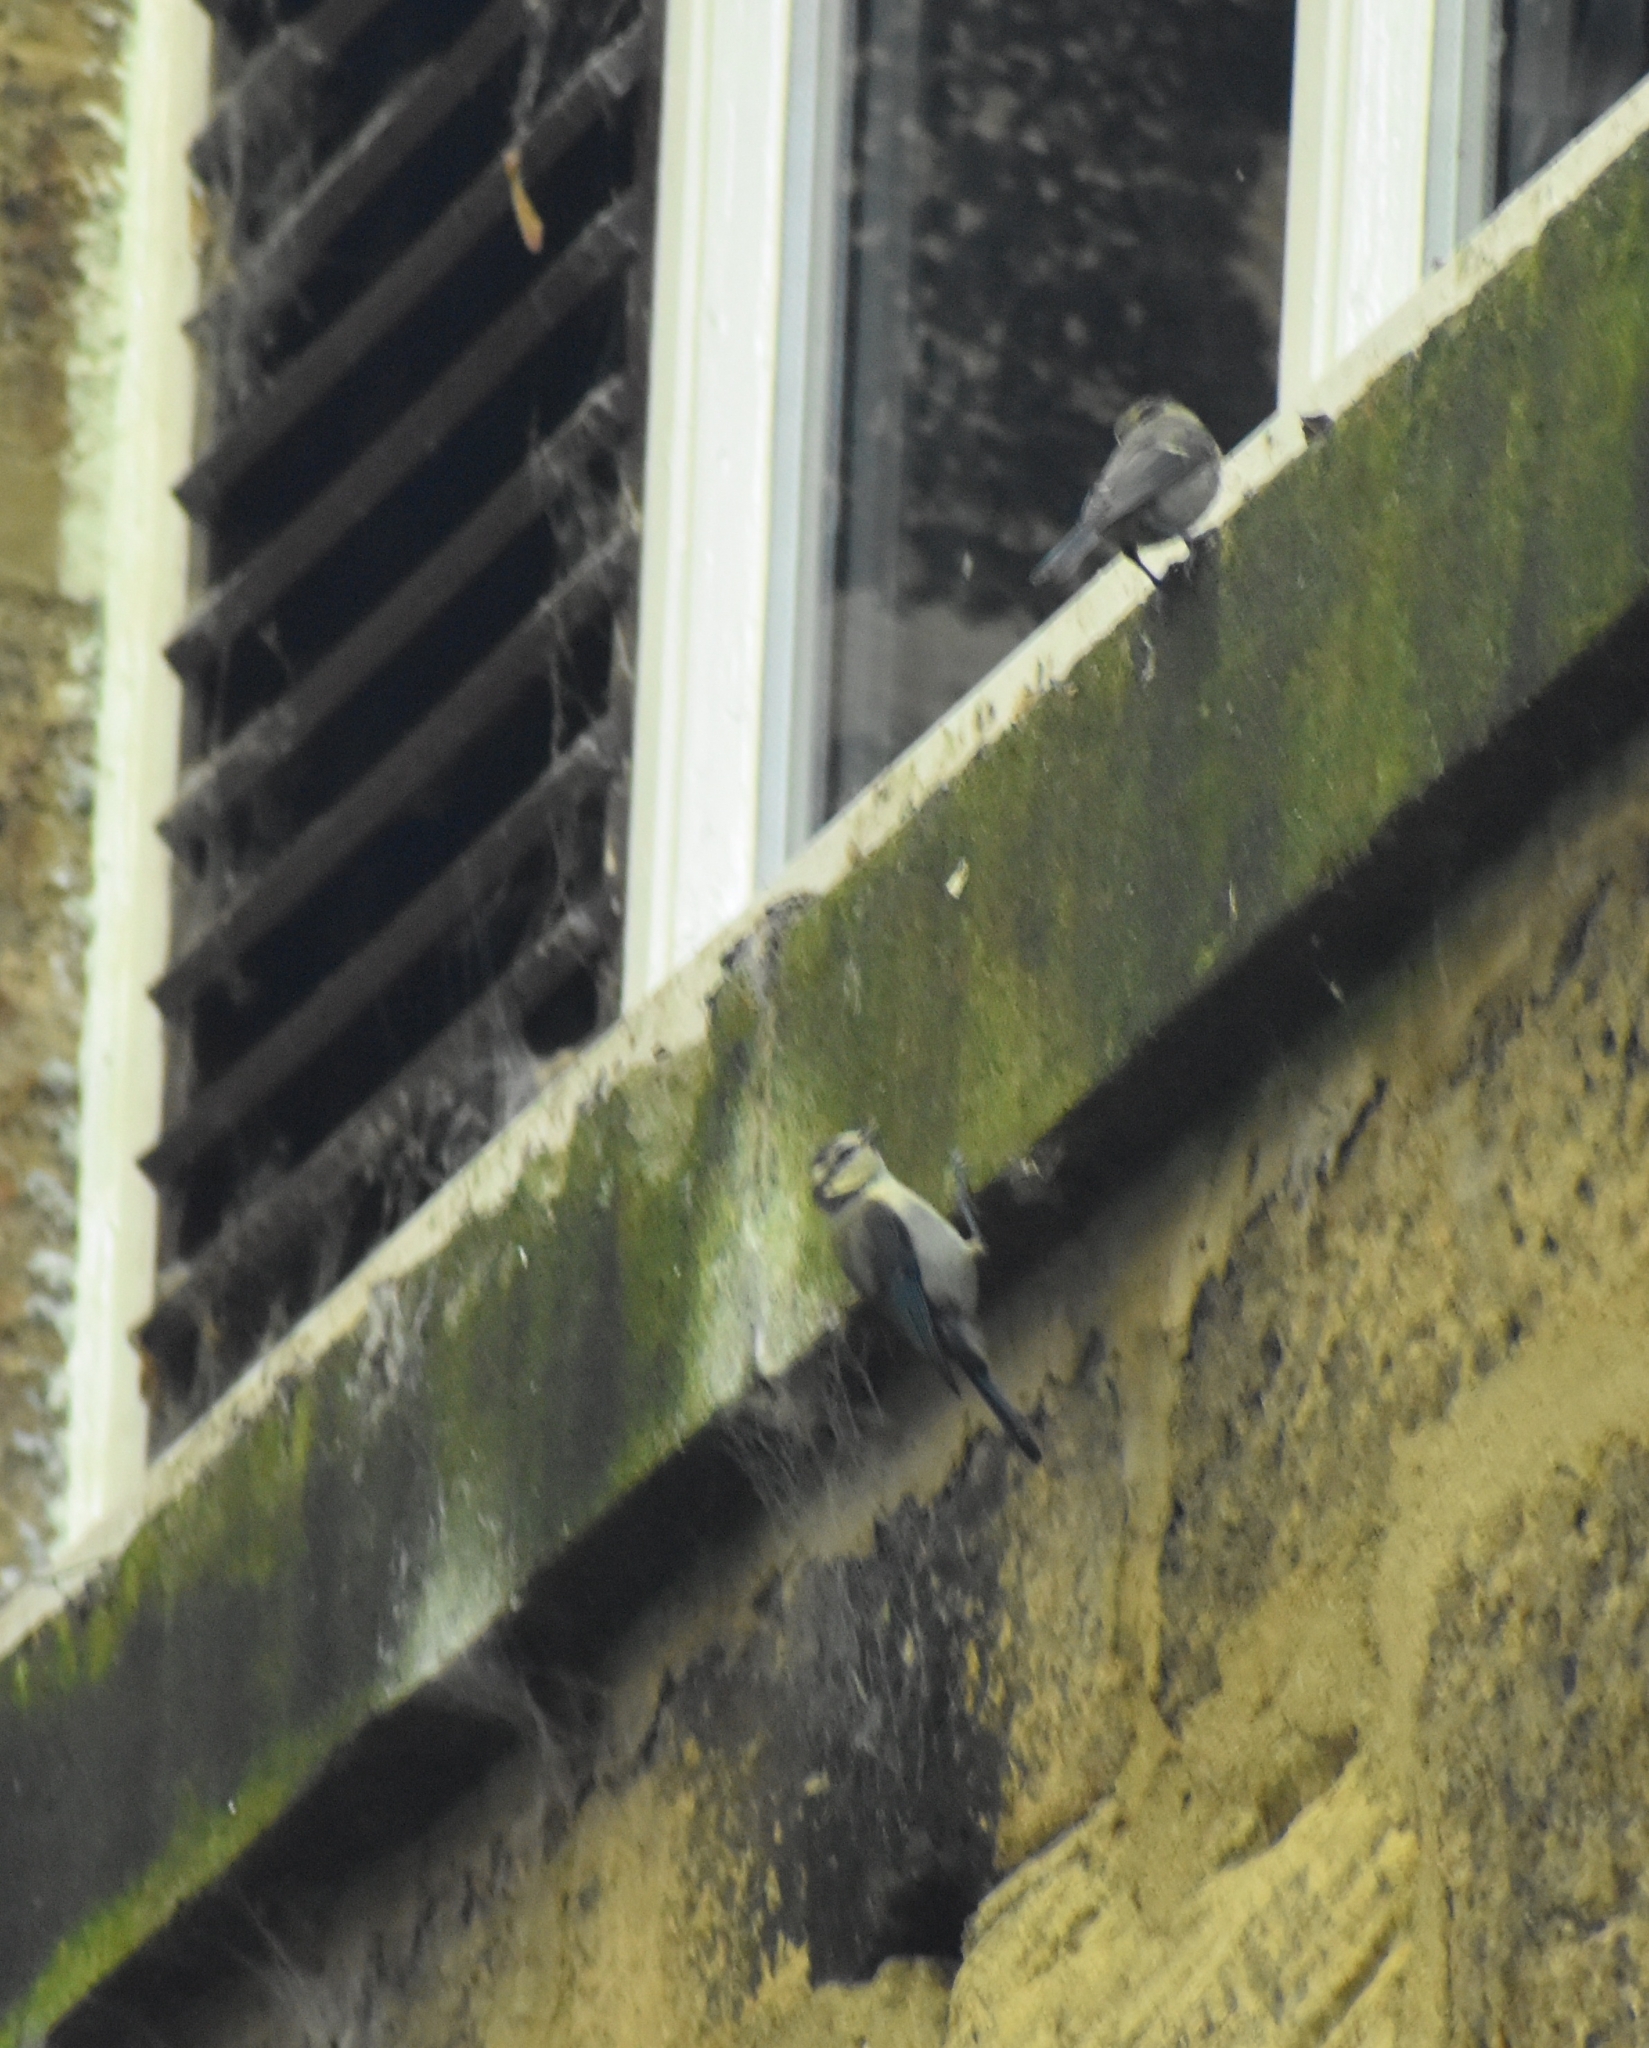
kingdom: Animalia
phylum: Chordata
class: Aves
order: Passeriformes
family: Paridae
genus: Cyanistes
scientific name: Cyanistes caeruleus
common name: Eurasian blue tit
